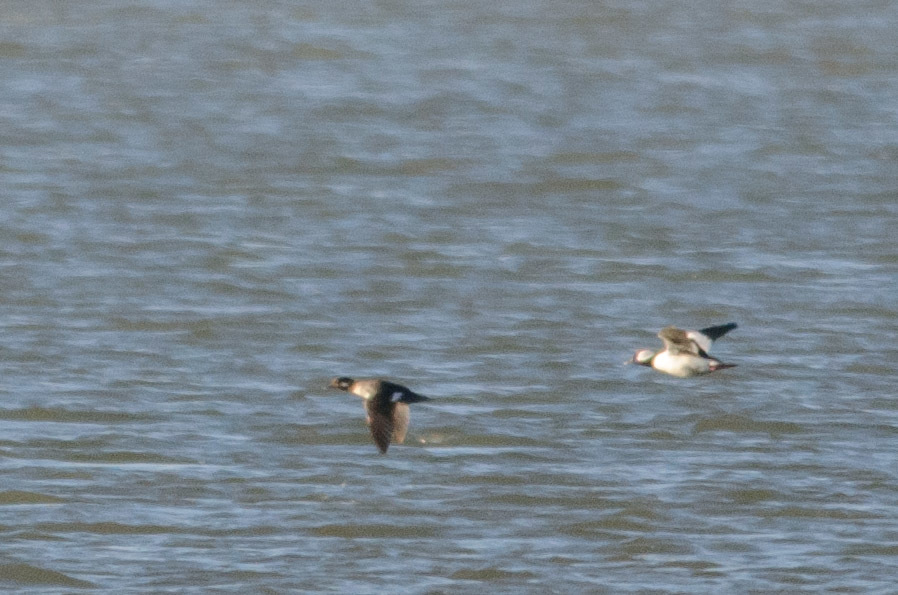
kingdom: Animalia
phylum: Chordata
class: Aves
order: Anseriformes
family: Anatidae
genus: Bucephala
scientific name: Bucephala albeola
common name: Bufflehead
